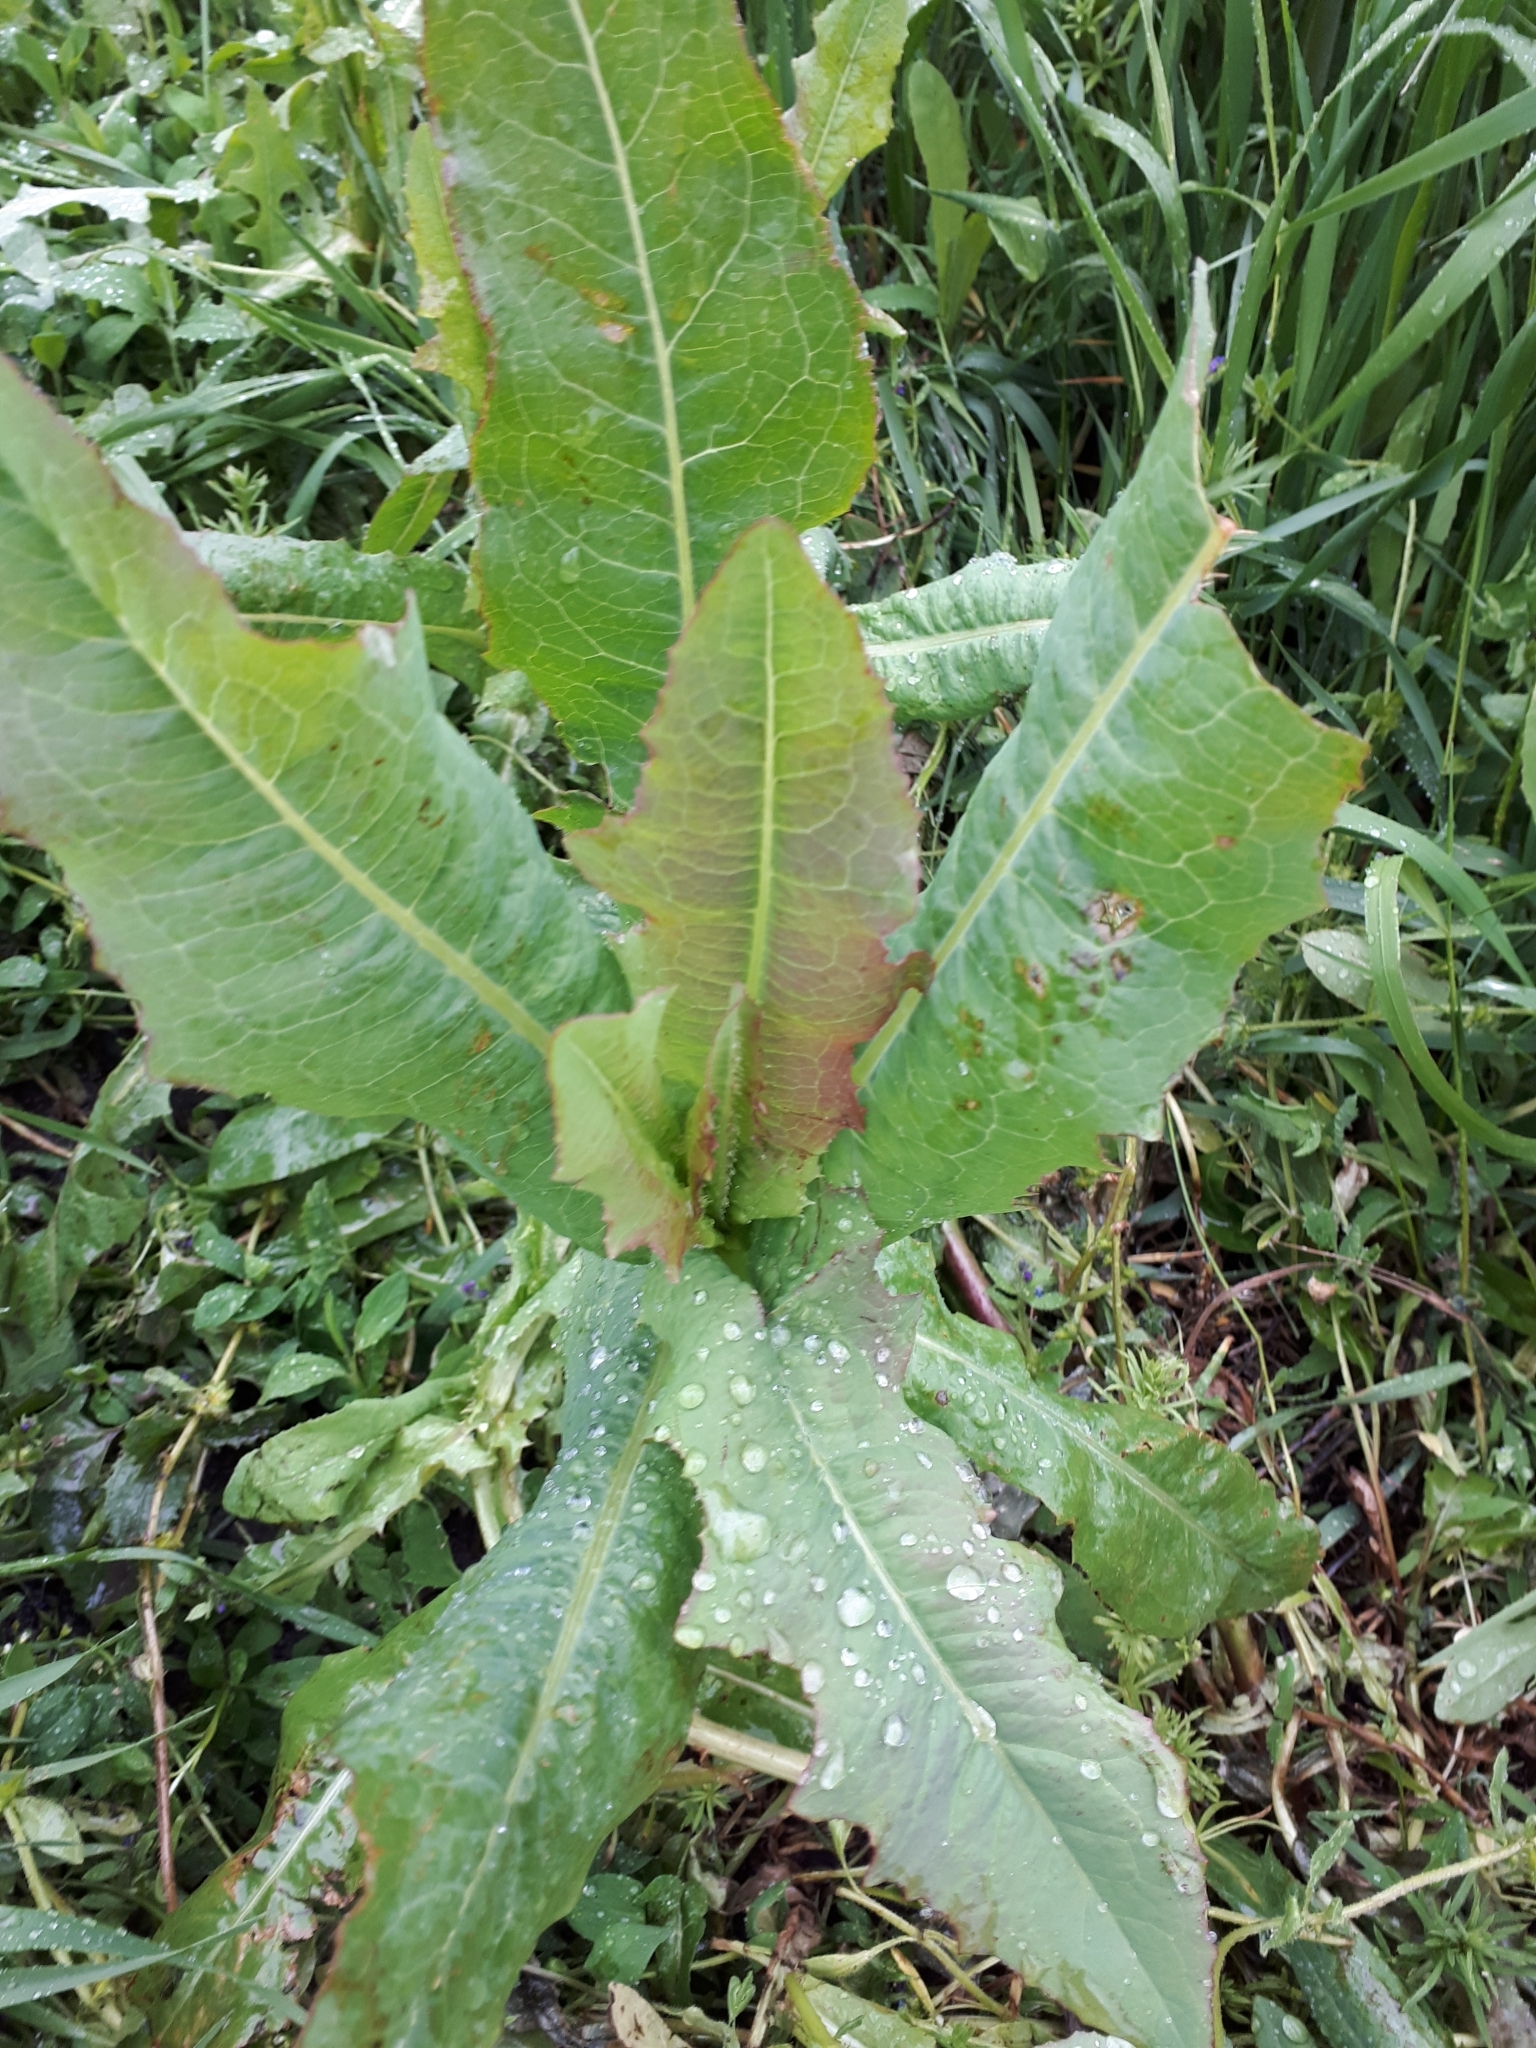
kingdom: Plantae
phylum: Tracheophyta
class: Magnoliopsida
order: Asterales
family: Asteraceae
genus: Lactuca
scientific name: Lactuca serriola
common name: Prickly lettuce
